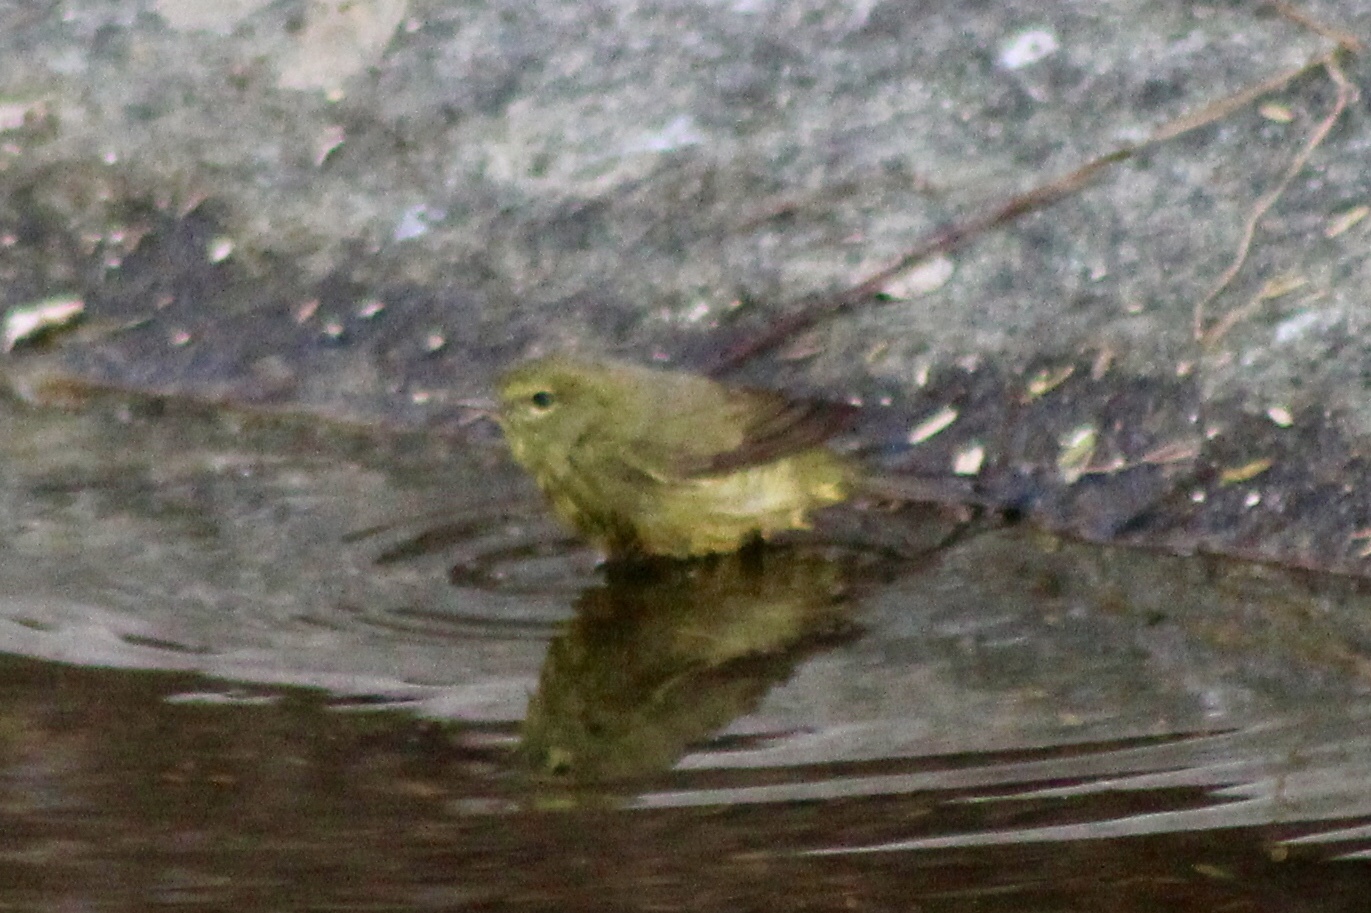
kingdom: Animalia
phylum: Chordata
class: Aves
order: Passeriformes
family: Parulidae
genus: Leiothlypis
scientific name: Leiothlypis celata
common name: Orange-crowned warbler
